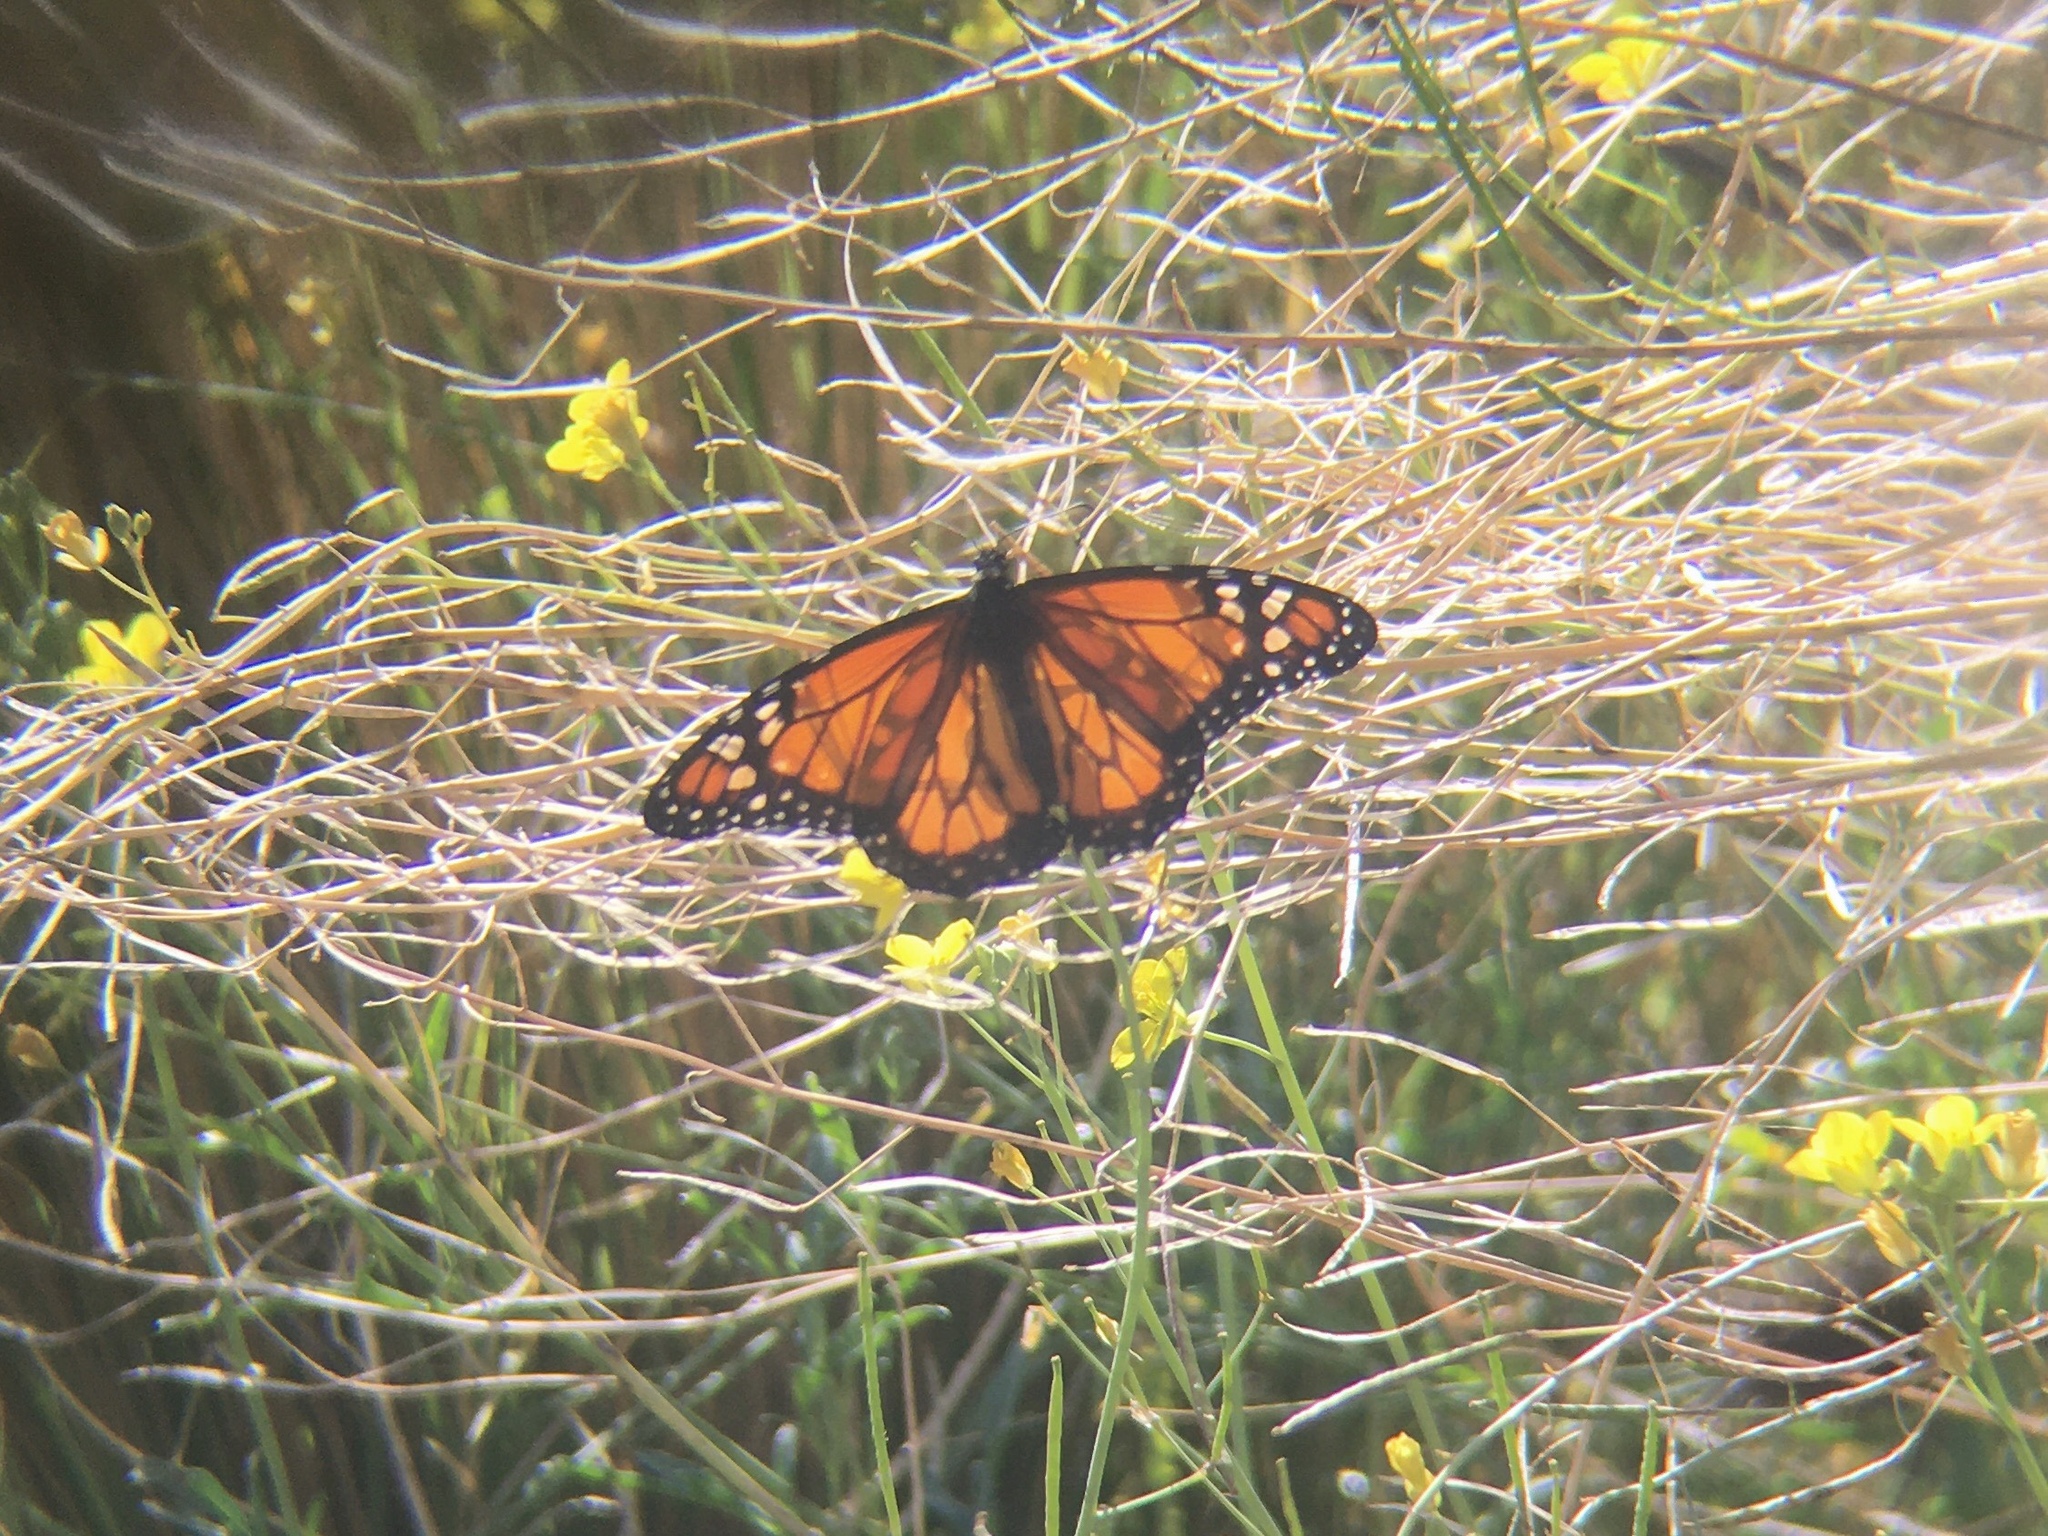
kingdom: Animalia
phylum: Arthropoda
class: Insecta
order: Lepidoptera
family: Nymphalidae
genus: Danaus
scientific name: Danaus erippus
